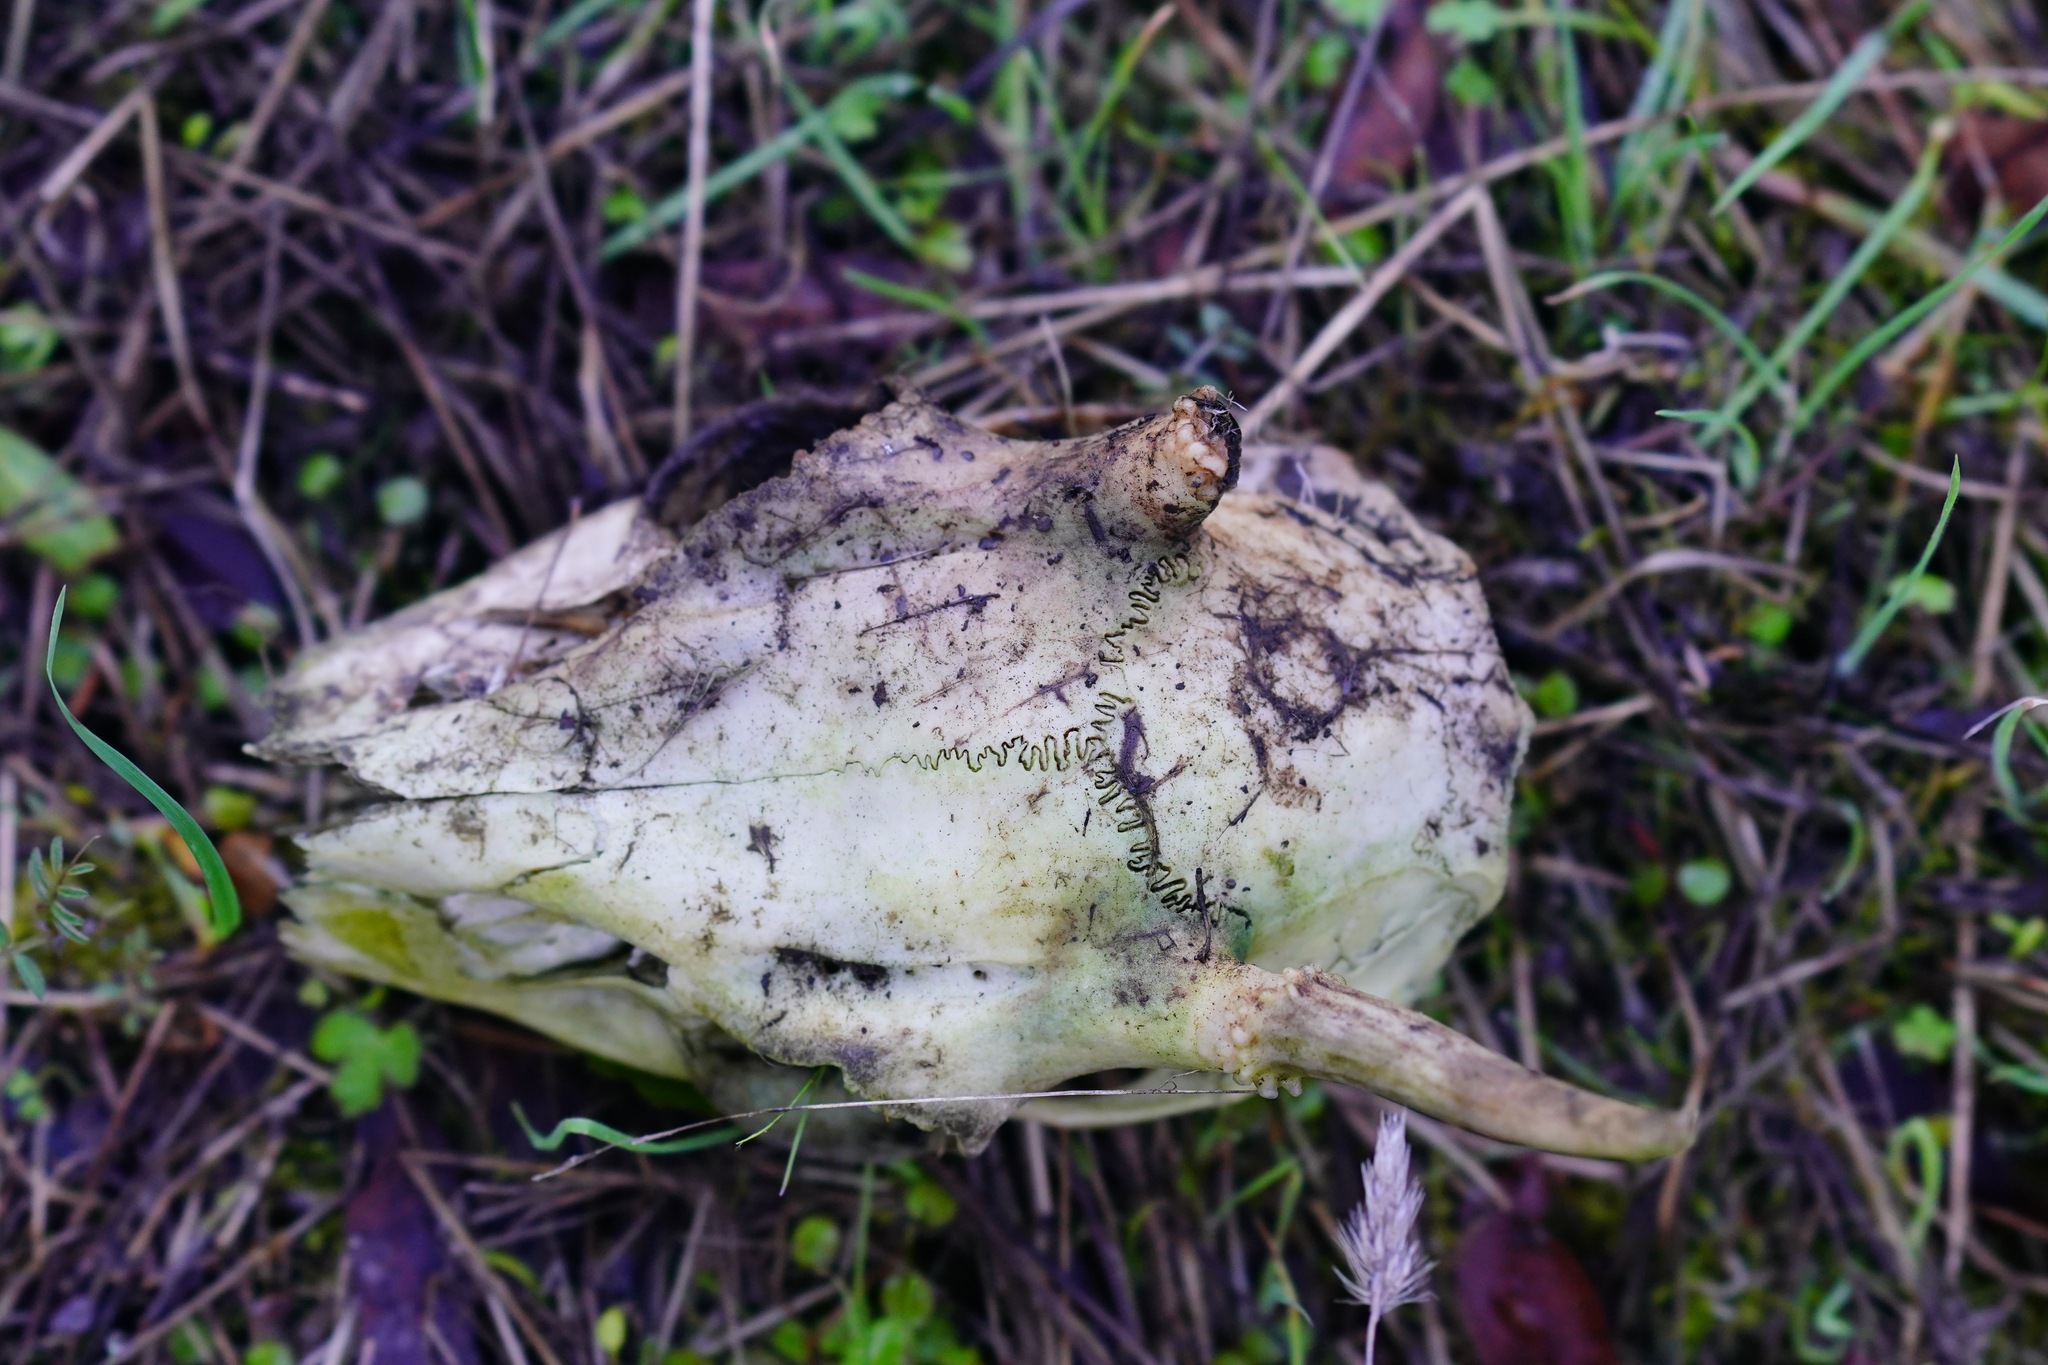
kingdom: Animalia
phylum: Chordata
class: Mammalia
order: Artiodactyla
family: Cervidae
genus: Odocoileus
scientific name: Odocoileus hemionus
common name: Mule deer
